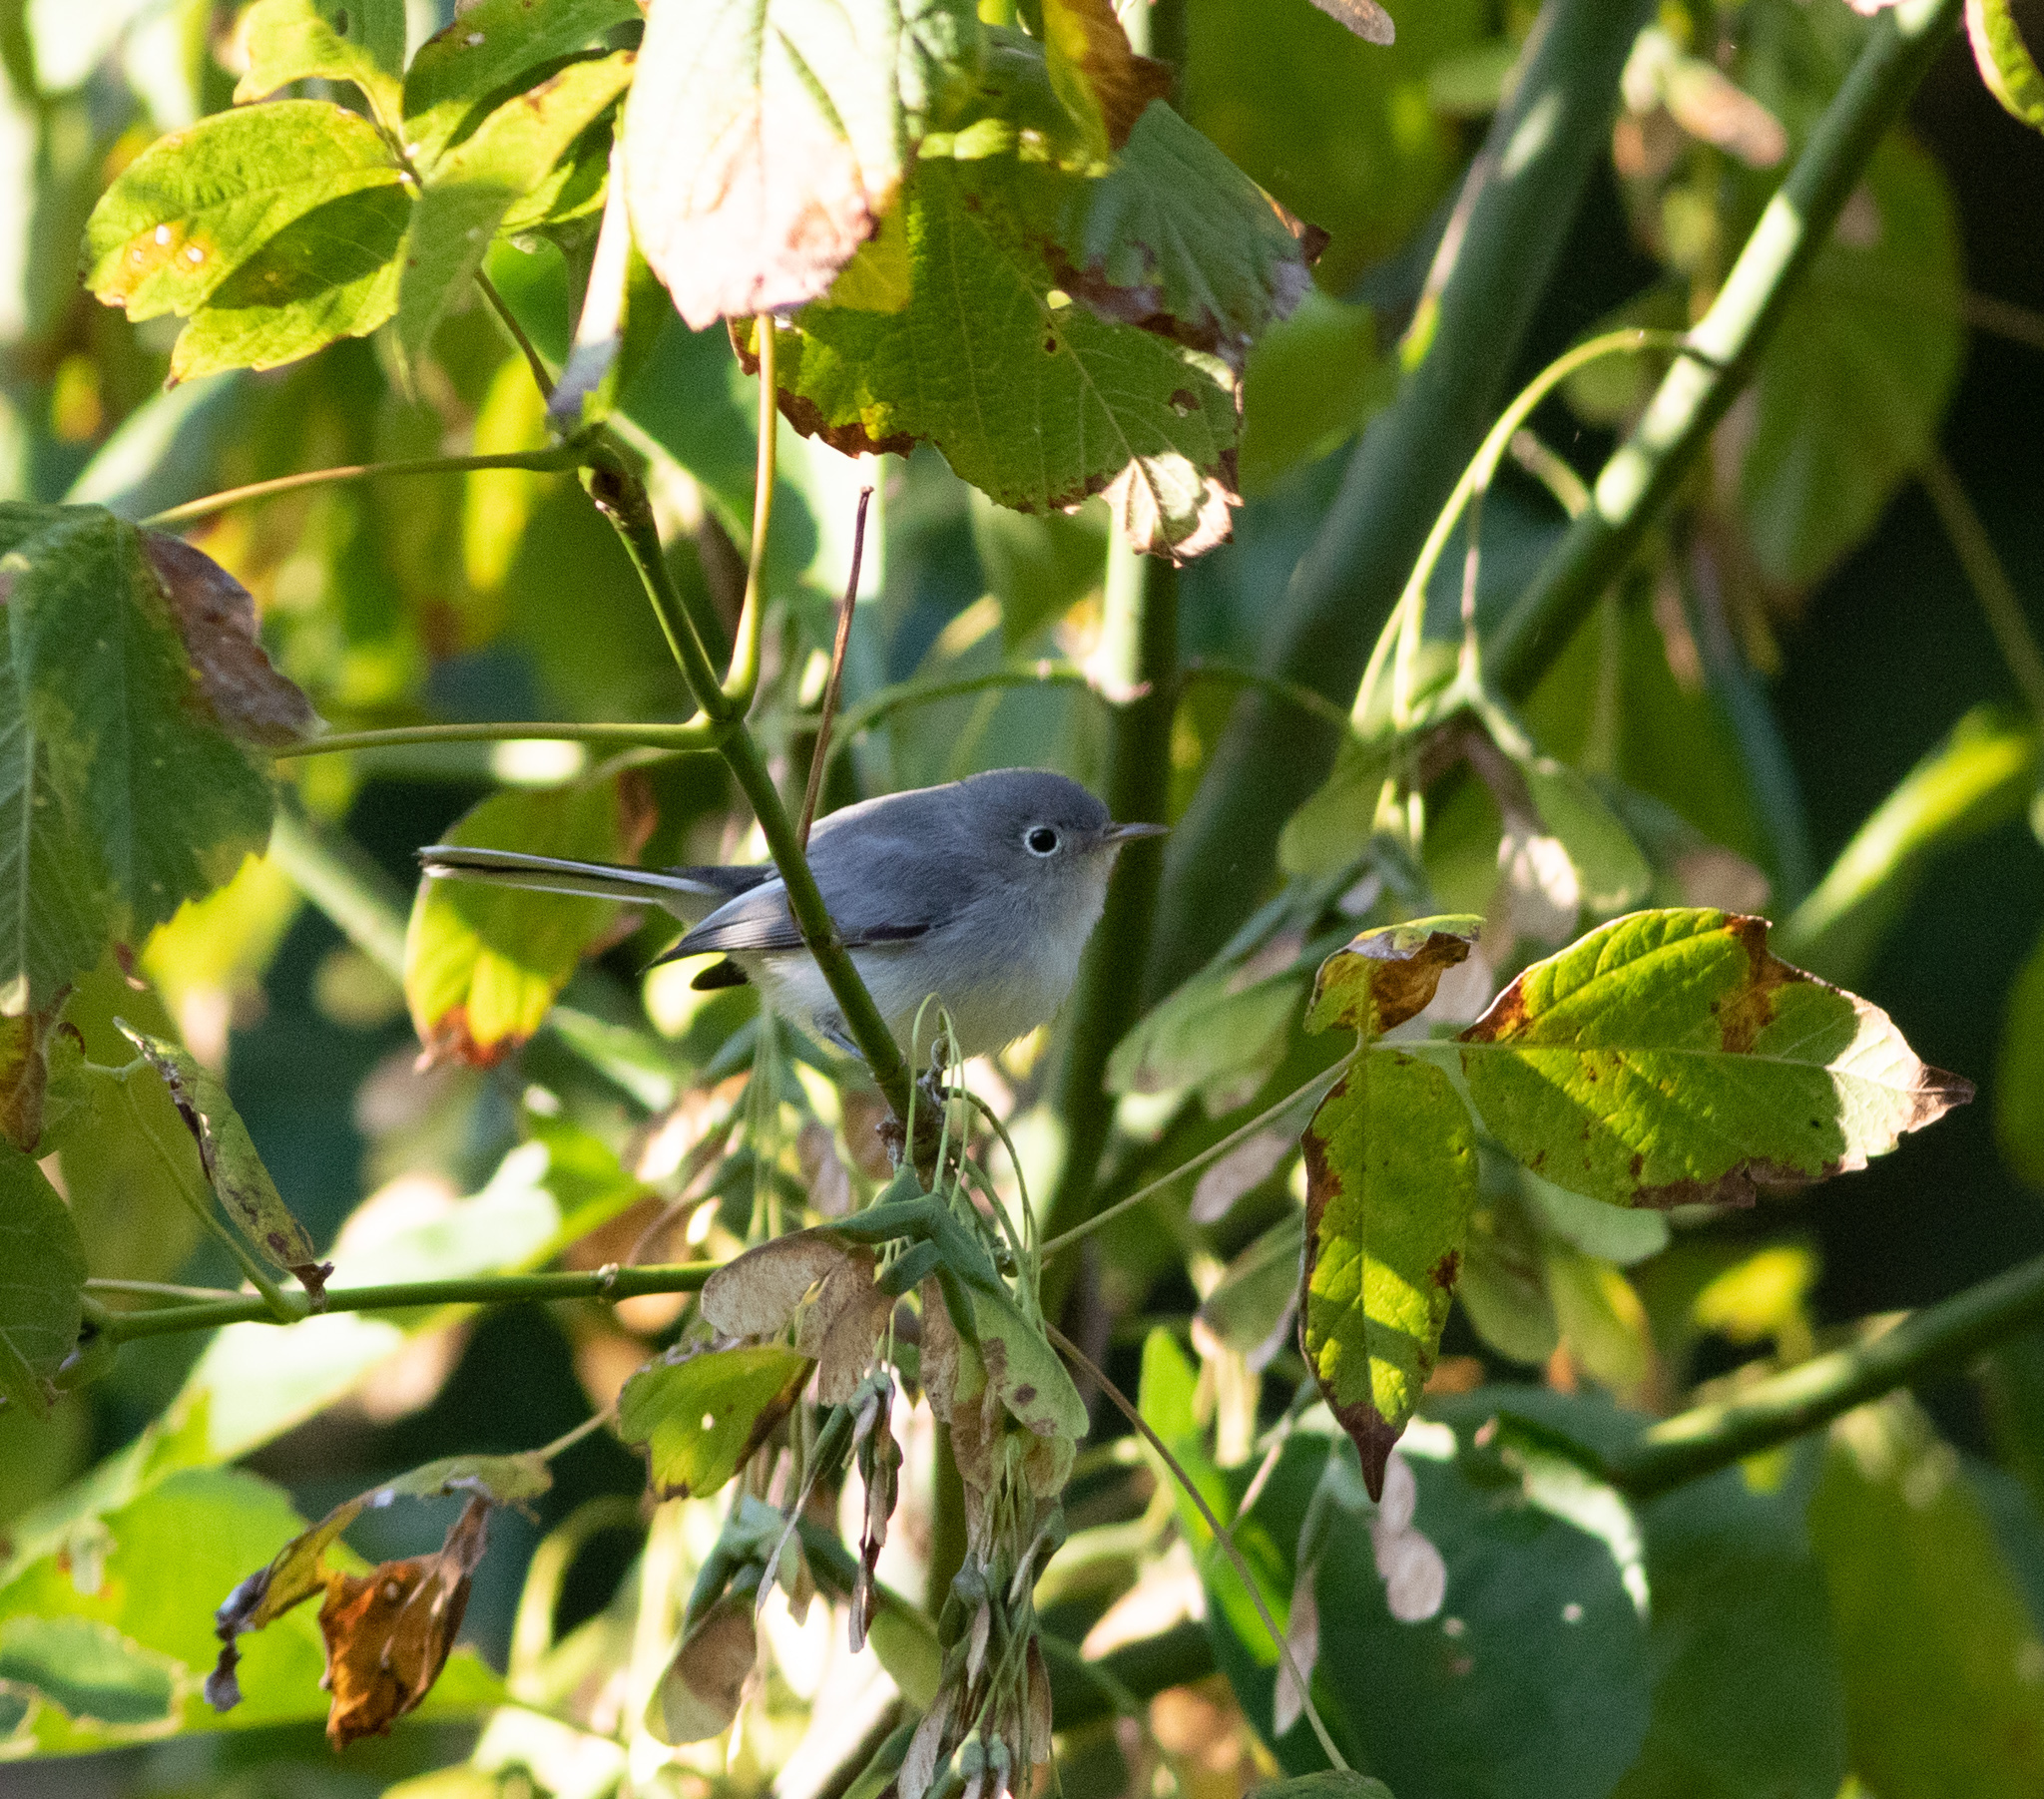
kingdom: Animalia
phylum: Chordata
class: Aves
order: Passeriformes
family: Polioptilidae
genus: Polioptila
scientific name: Polioptila caerulea
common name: Blue-gray gnatcatcher
